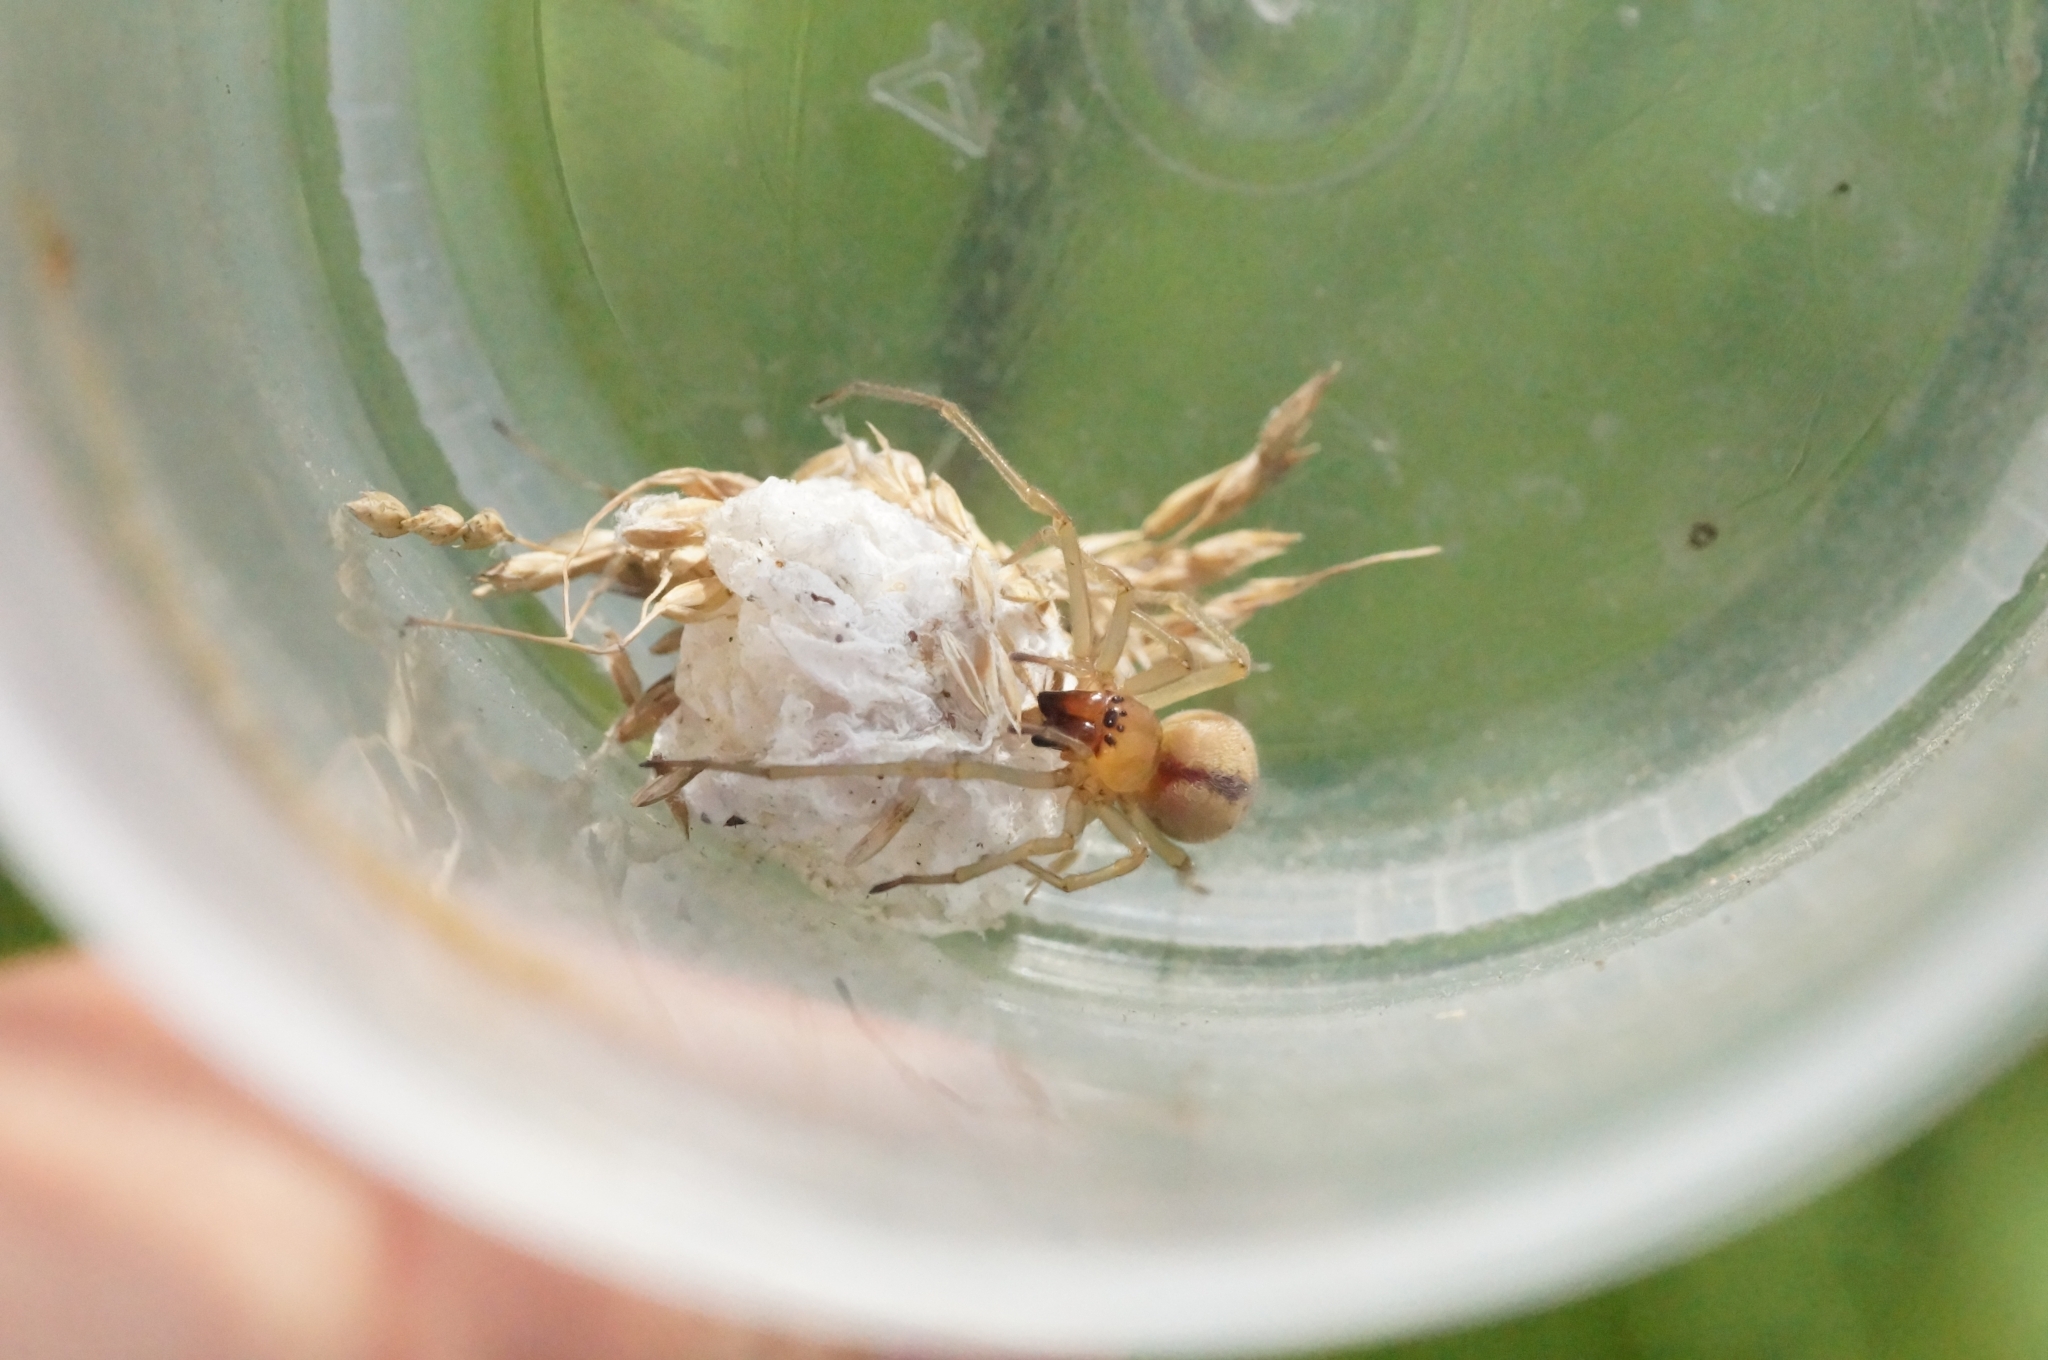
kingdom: Animalia
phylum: Arthropoda
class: Arachnida
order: Araneae
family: Cheiracanthiidae
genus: Cheiracanthium
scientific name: Cheiracanthium erraticum
